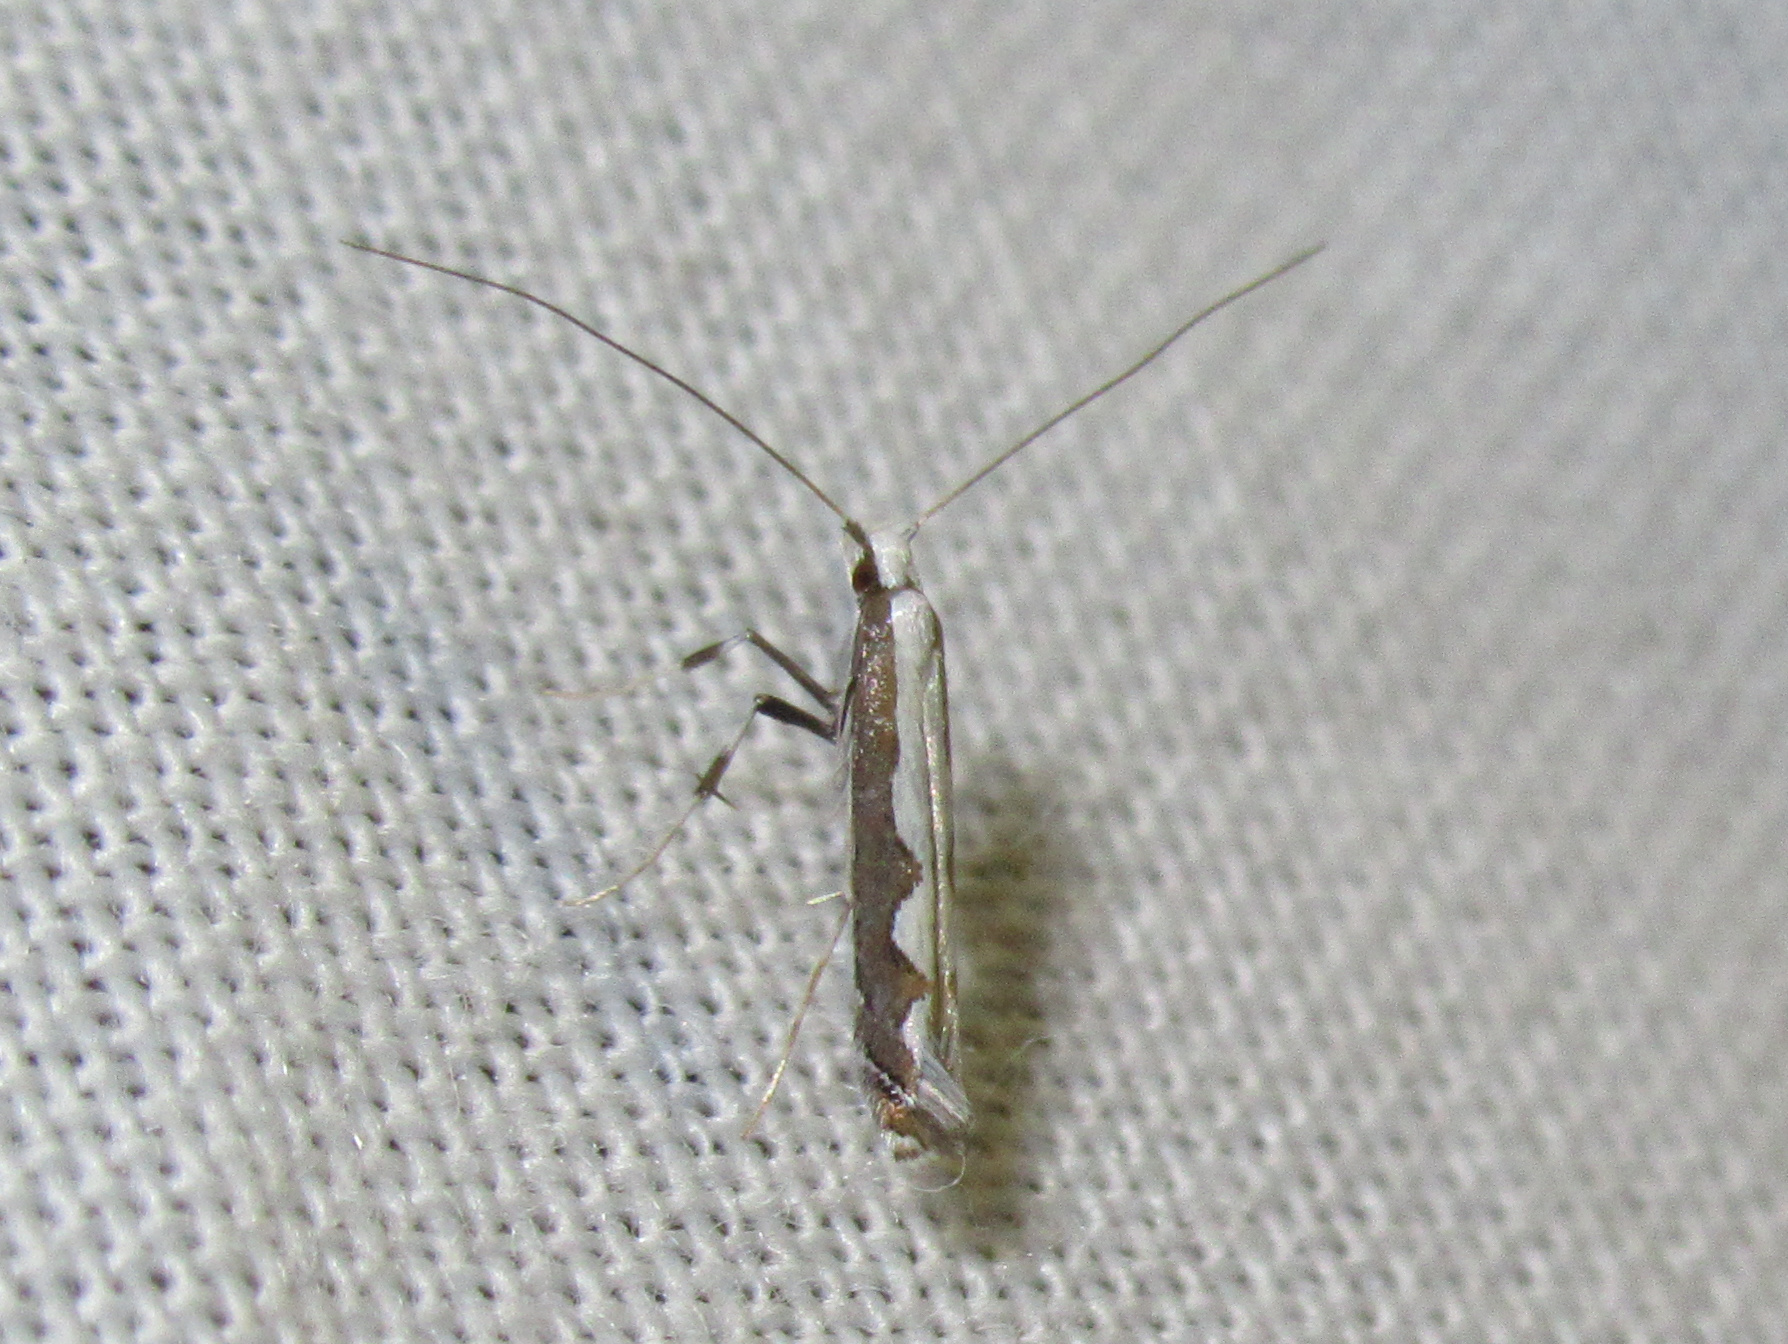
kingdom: Animalia
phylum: Arthropoda
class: Insecta
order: Lepidoptera
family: Gracillariidae
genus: Dialectica
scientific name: Dialectica scalariella
